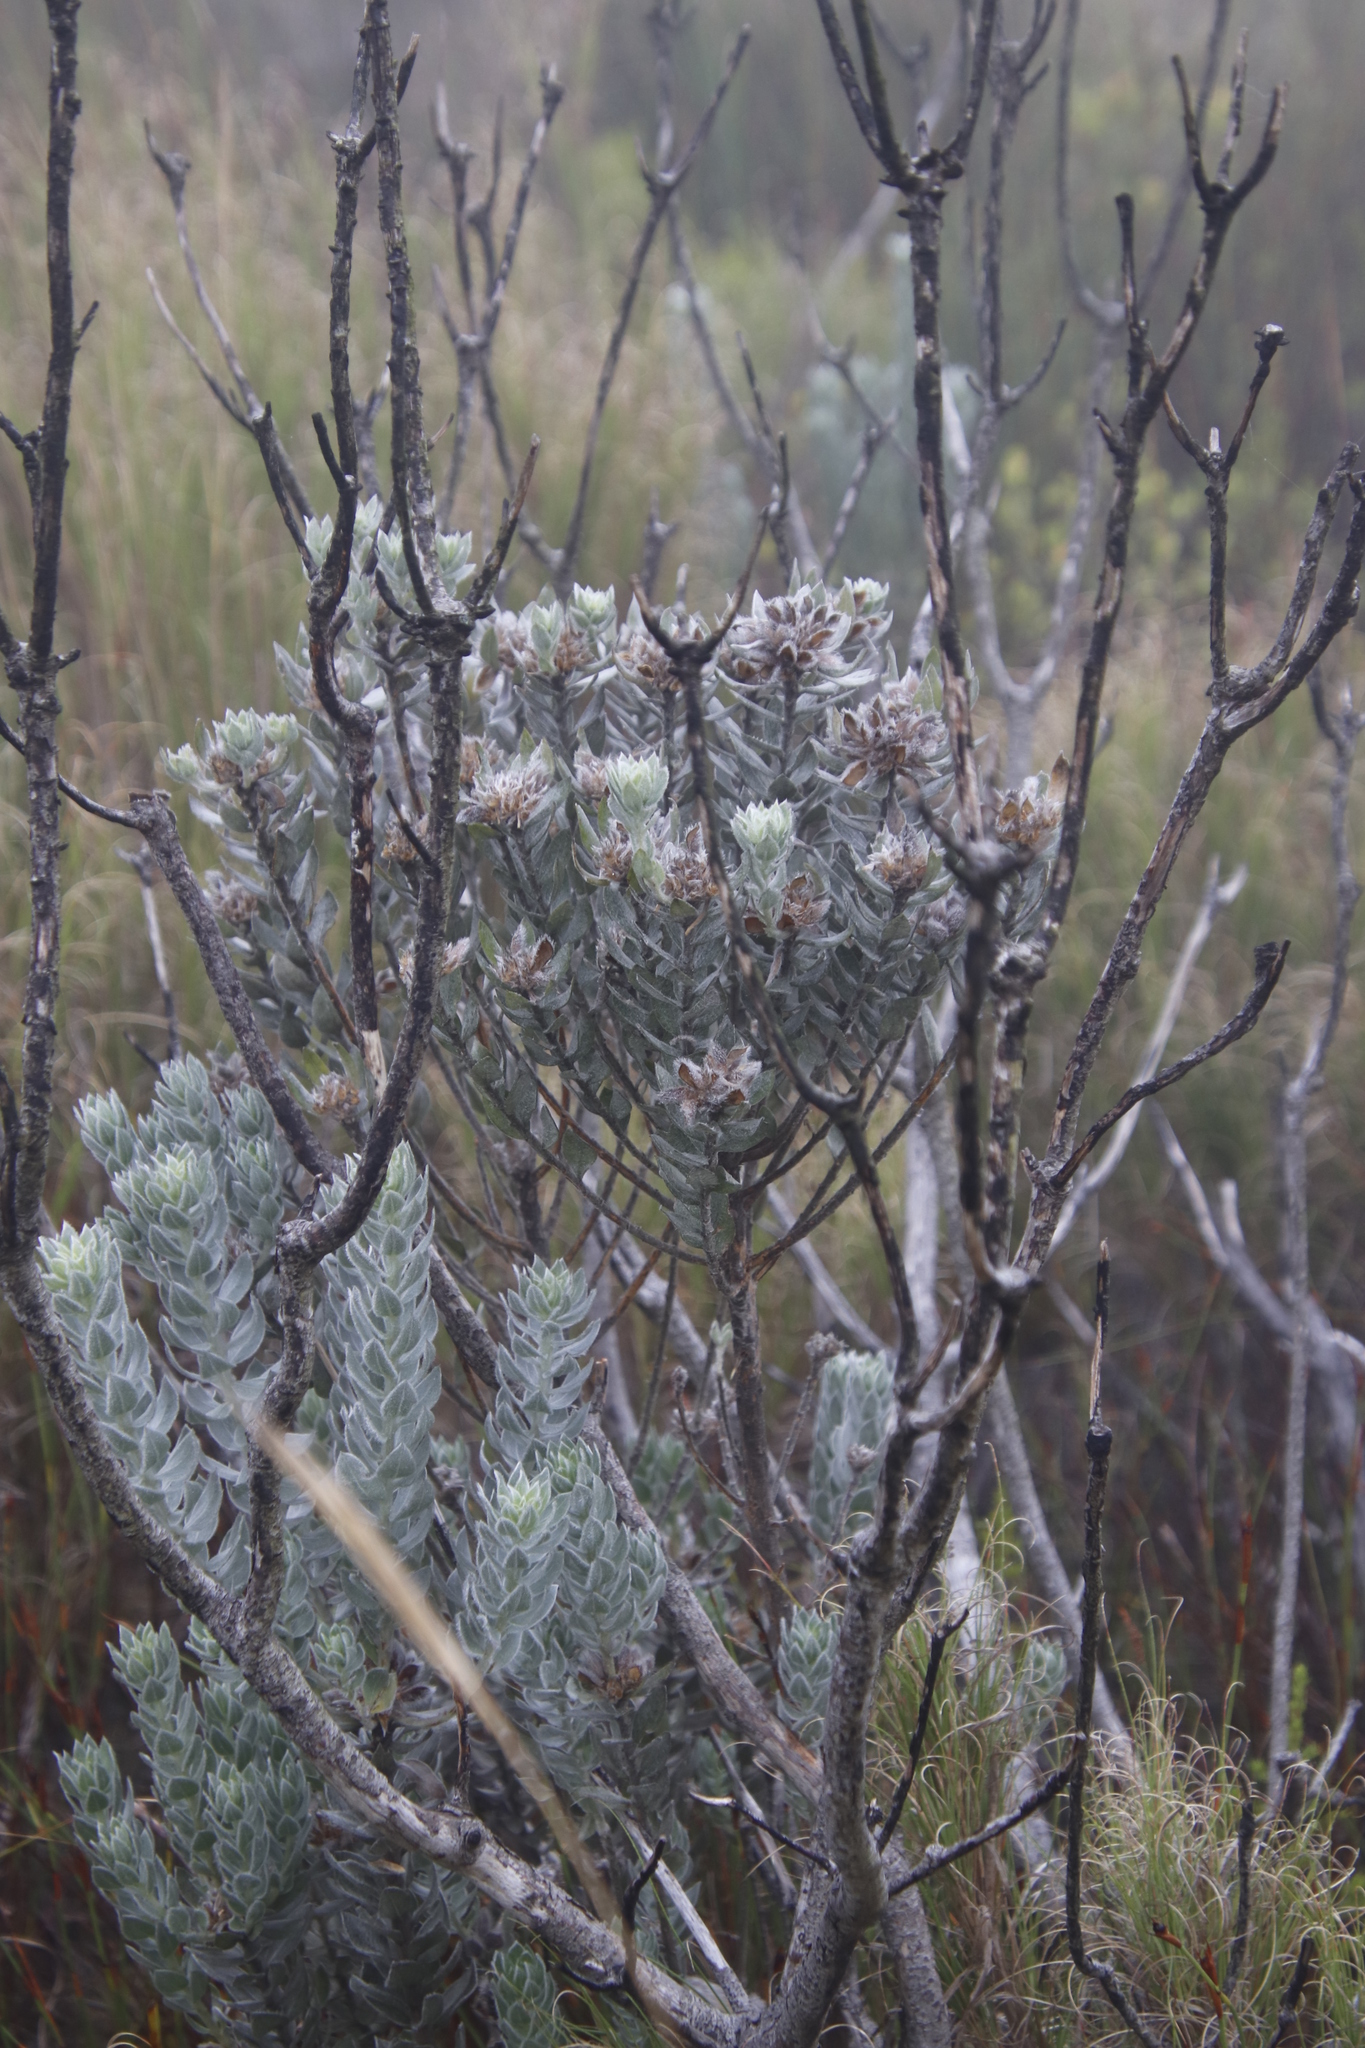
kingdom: Plantae
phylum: Tracheophyta
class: Magnoliopsida
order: Fabales
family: Fabaceae
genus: Xiphotheca
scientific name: Xiphotheca fruticosa
